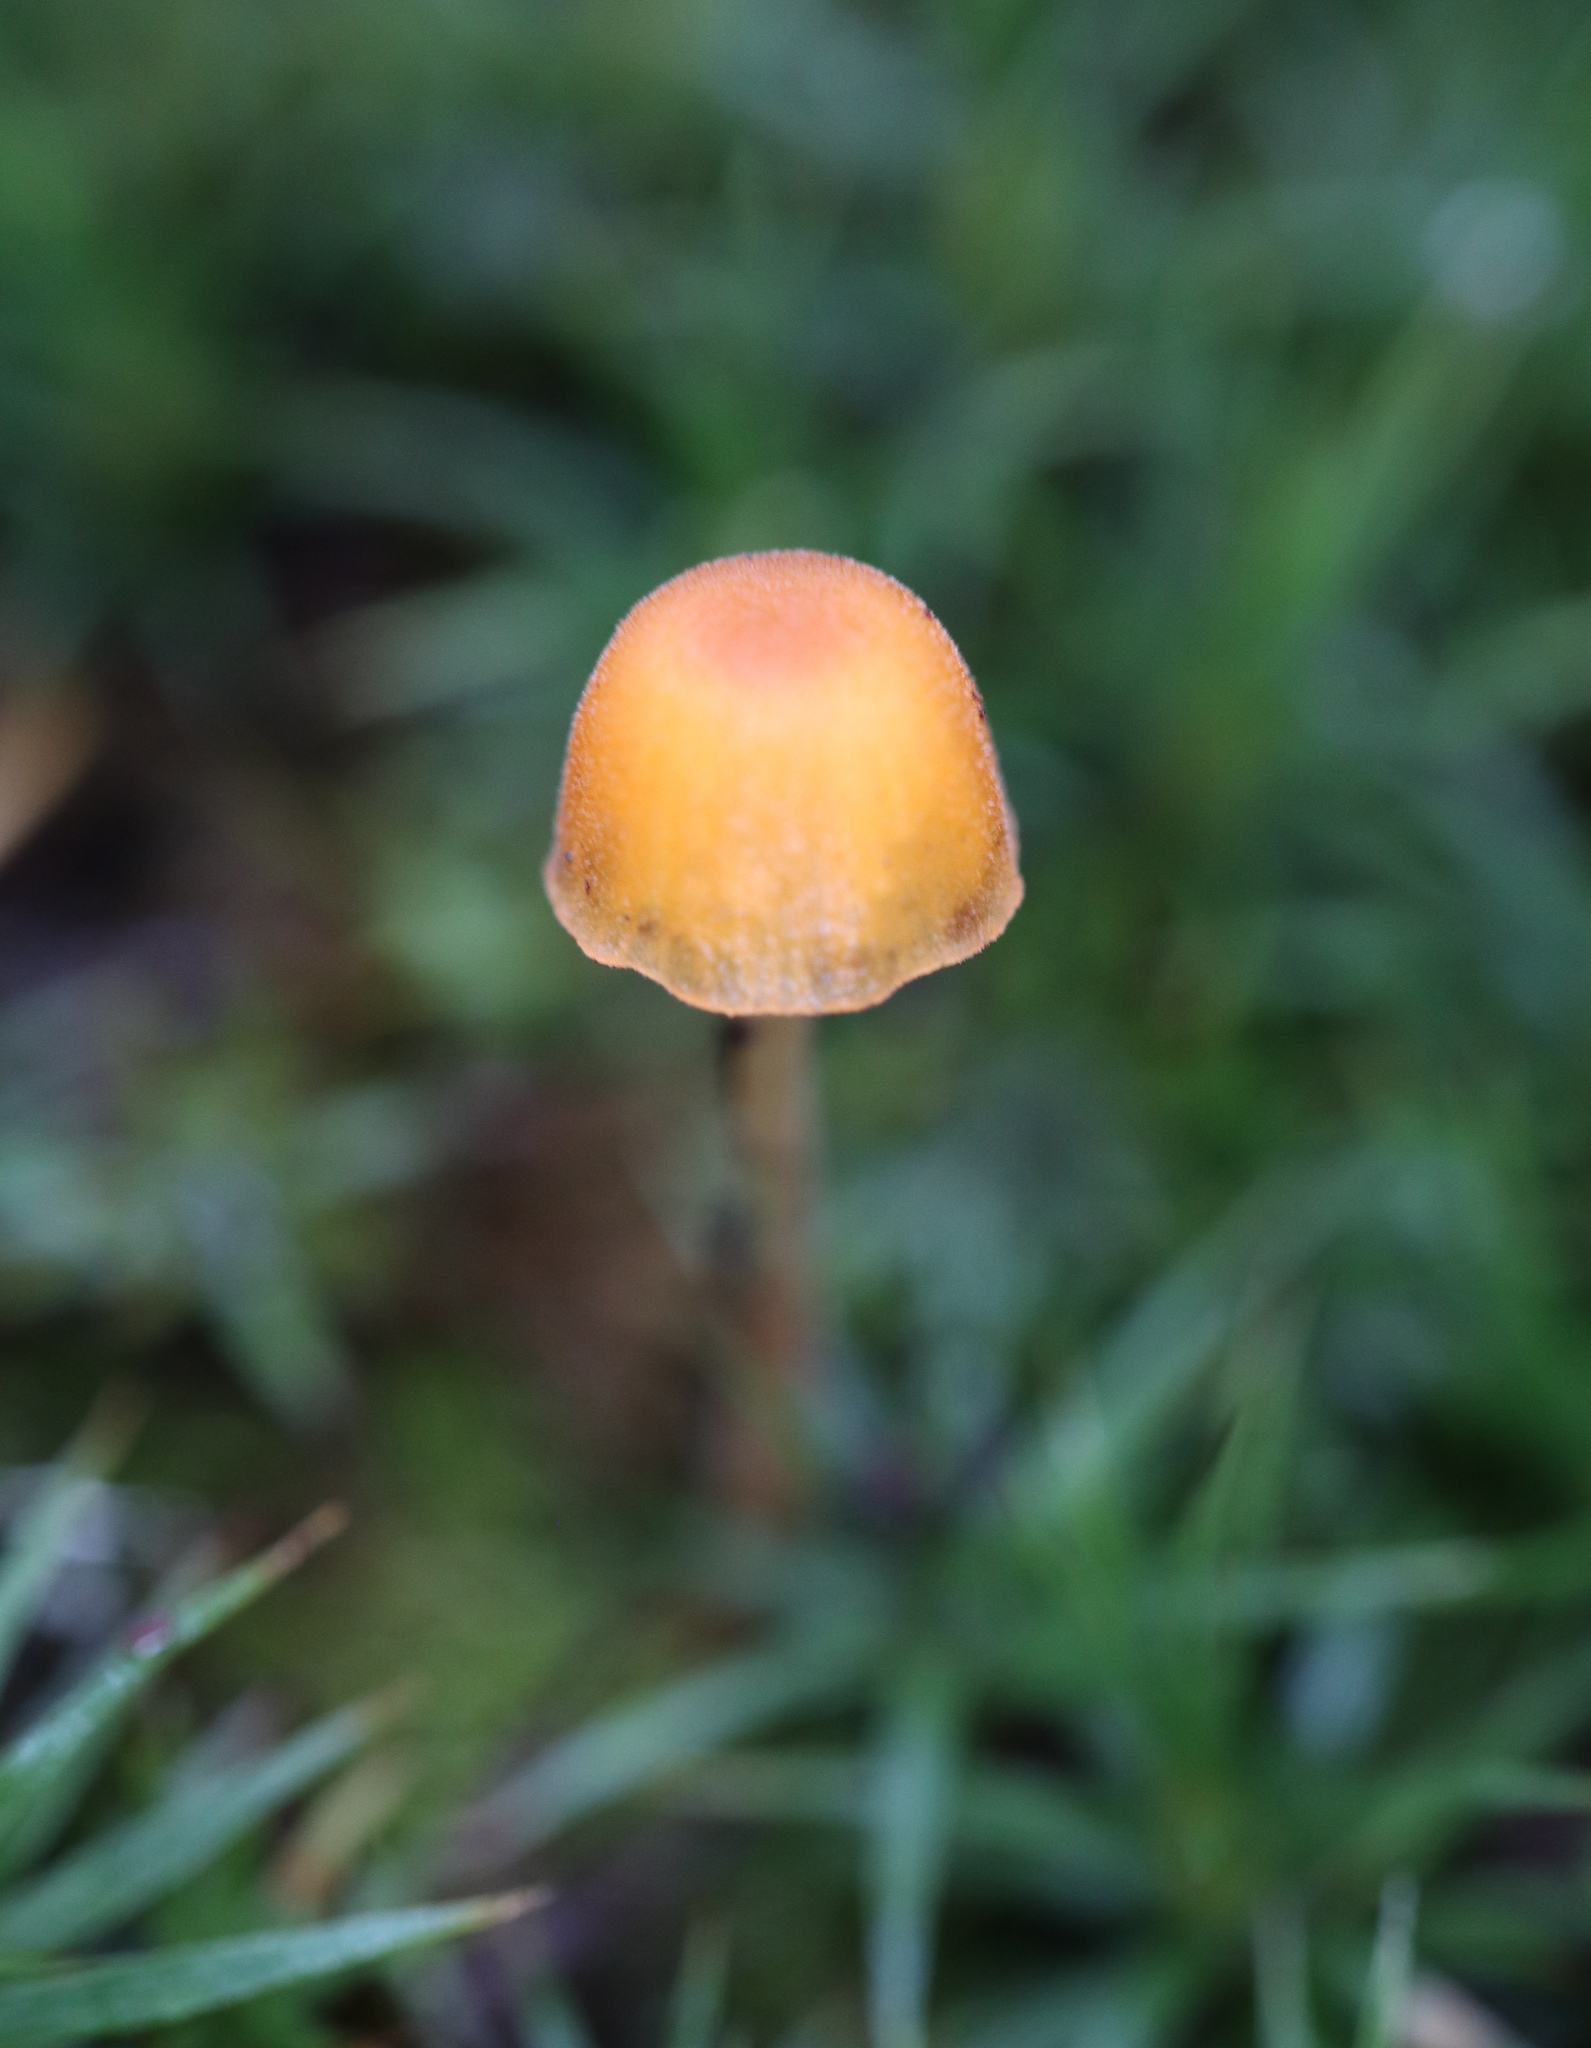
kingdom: Fungi
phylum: Basidiomycota
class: Agaricomycetes
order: Hymenochaetales
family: Rickenellaceae
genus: Rickenella
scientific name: Rickenella fibula
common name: Orange mosscap
